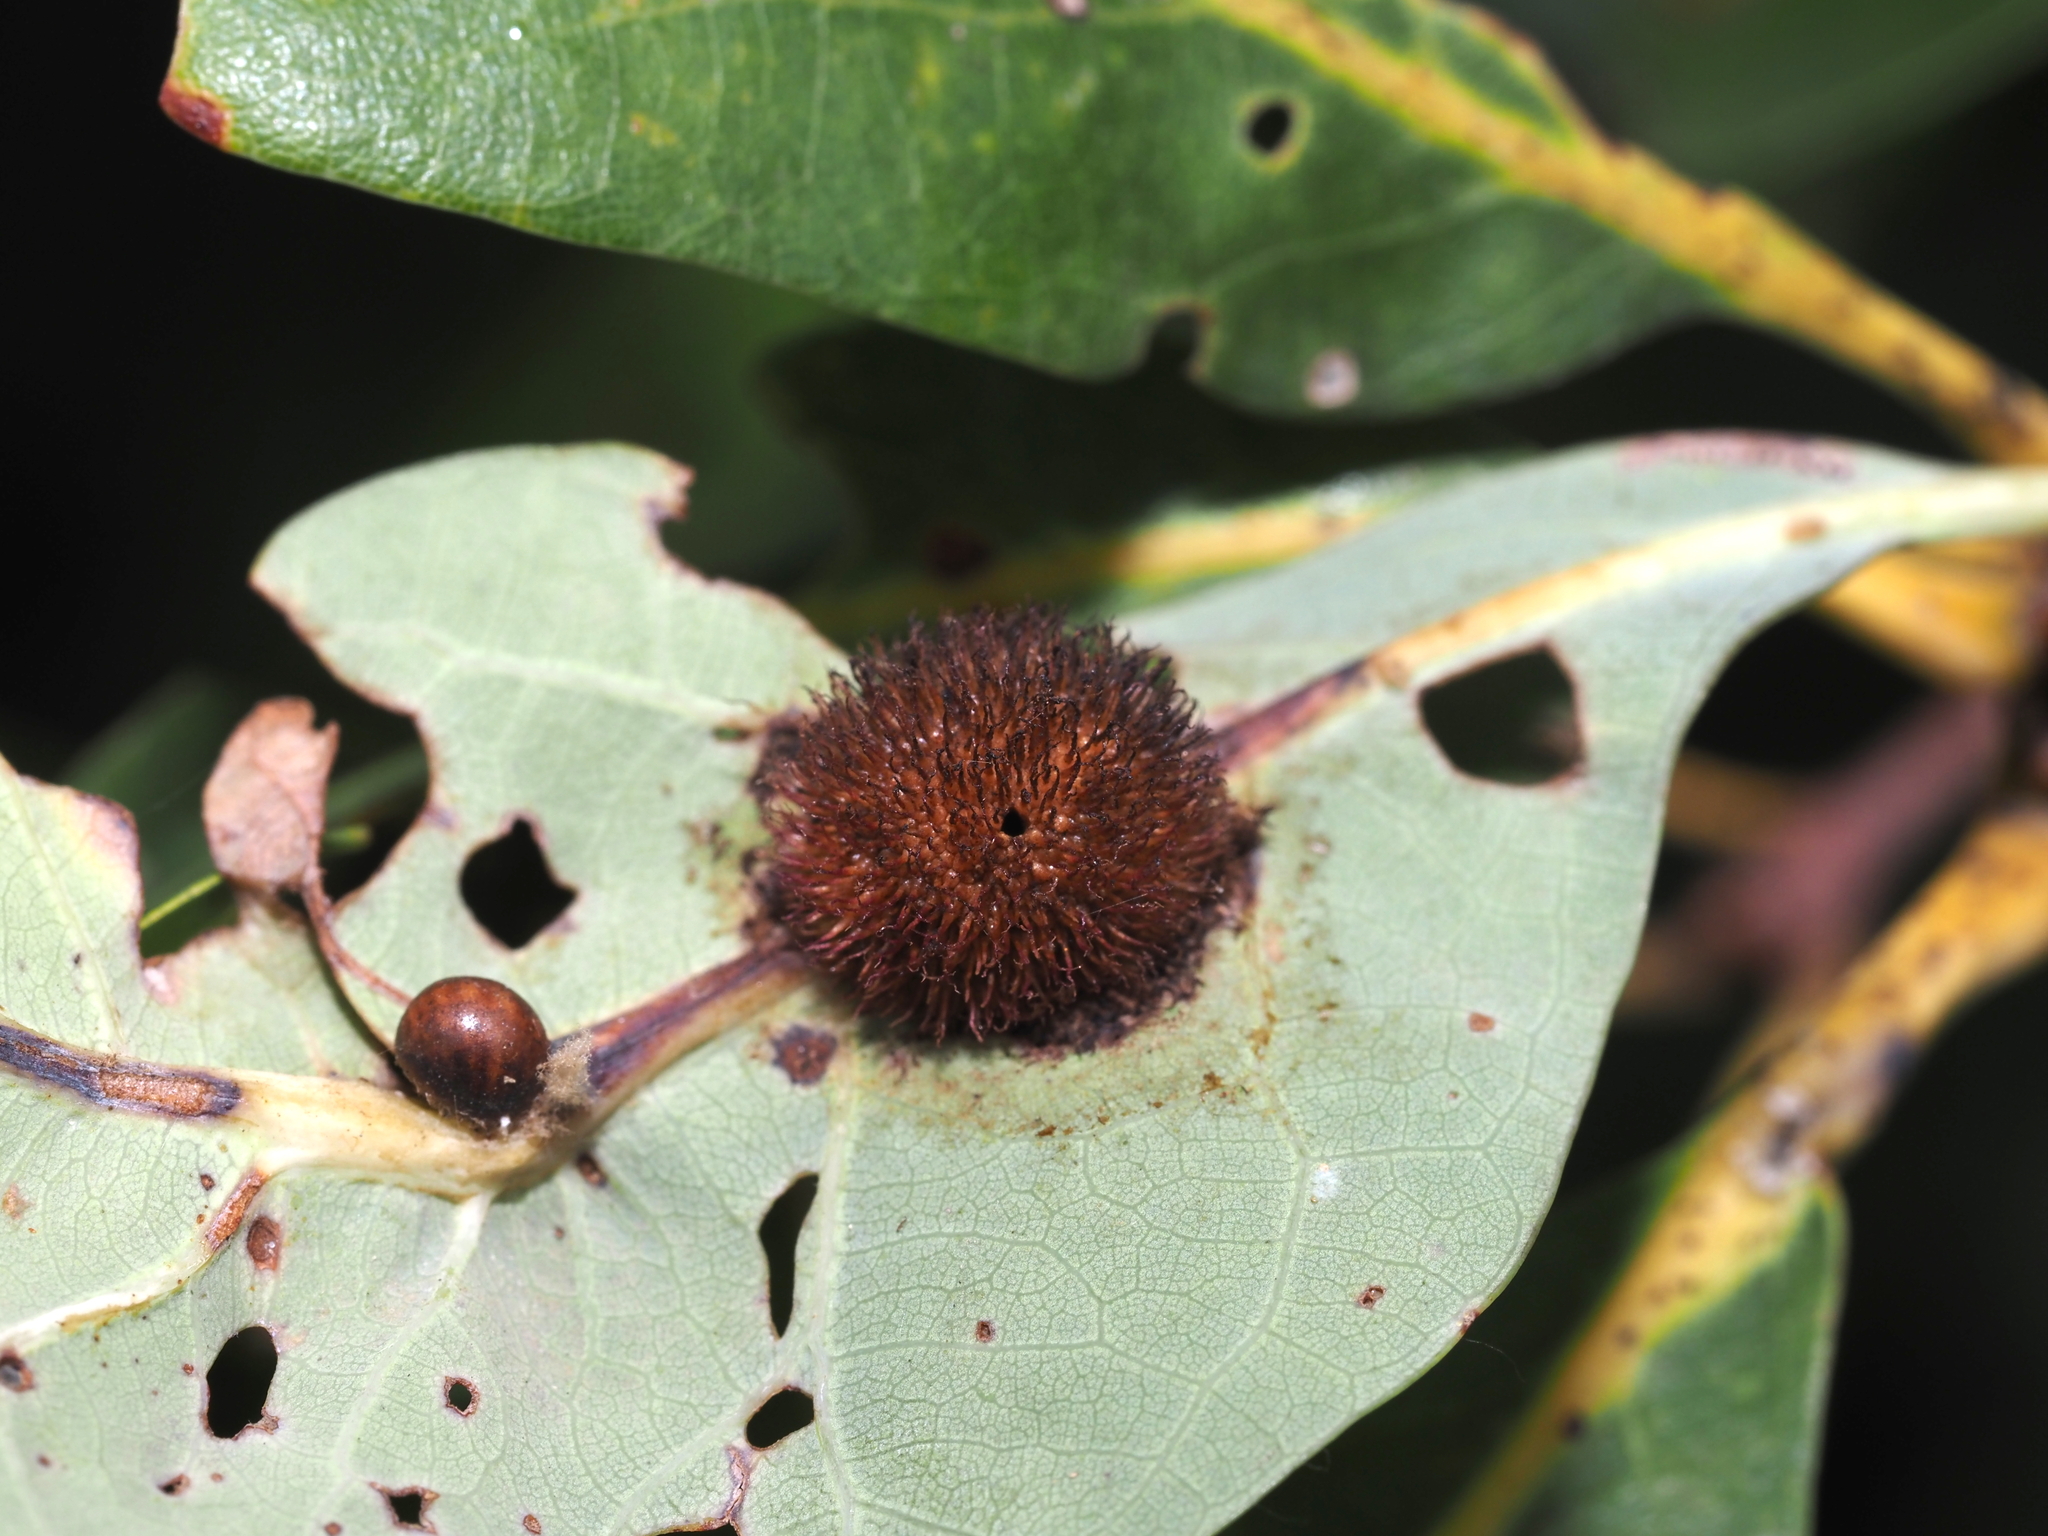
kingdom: Animalia
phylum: Arthropoda
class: Insecta
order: Hymenoptera
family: Cynipidae
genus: Acraspis
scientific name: Acraspis erinacei
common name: Hedgehog gall wasp
